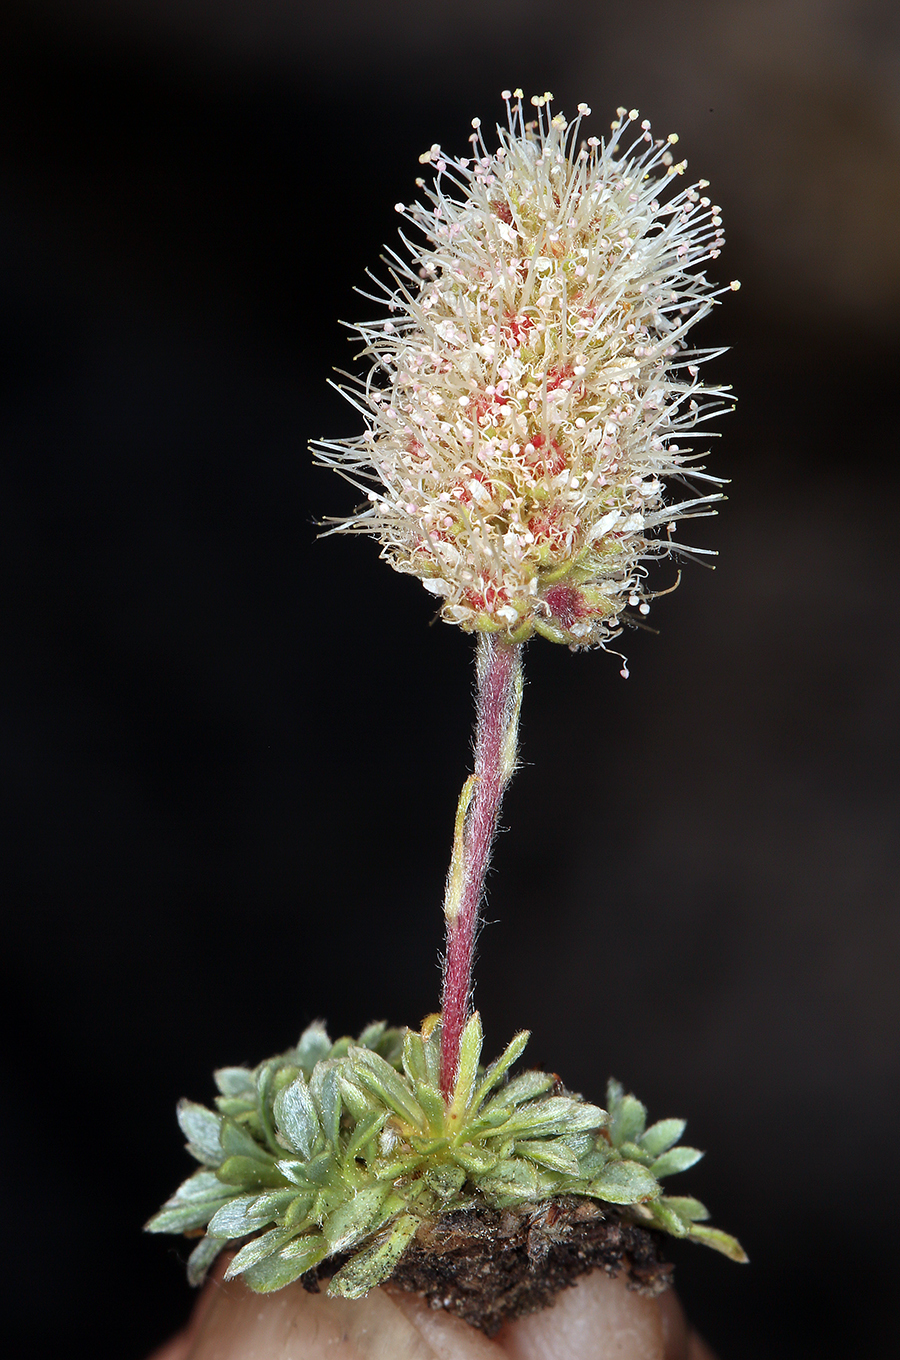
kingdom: Plantae
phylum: Tracheophyta
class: Magnoliopsida
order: Rosales
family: Rosaceae
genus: Petrophytum
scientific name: Petrophytum caespitosum
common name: Mat rockspirea
